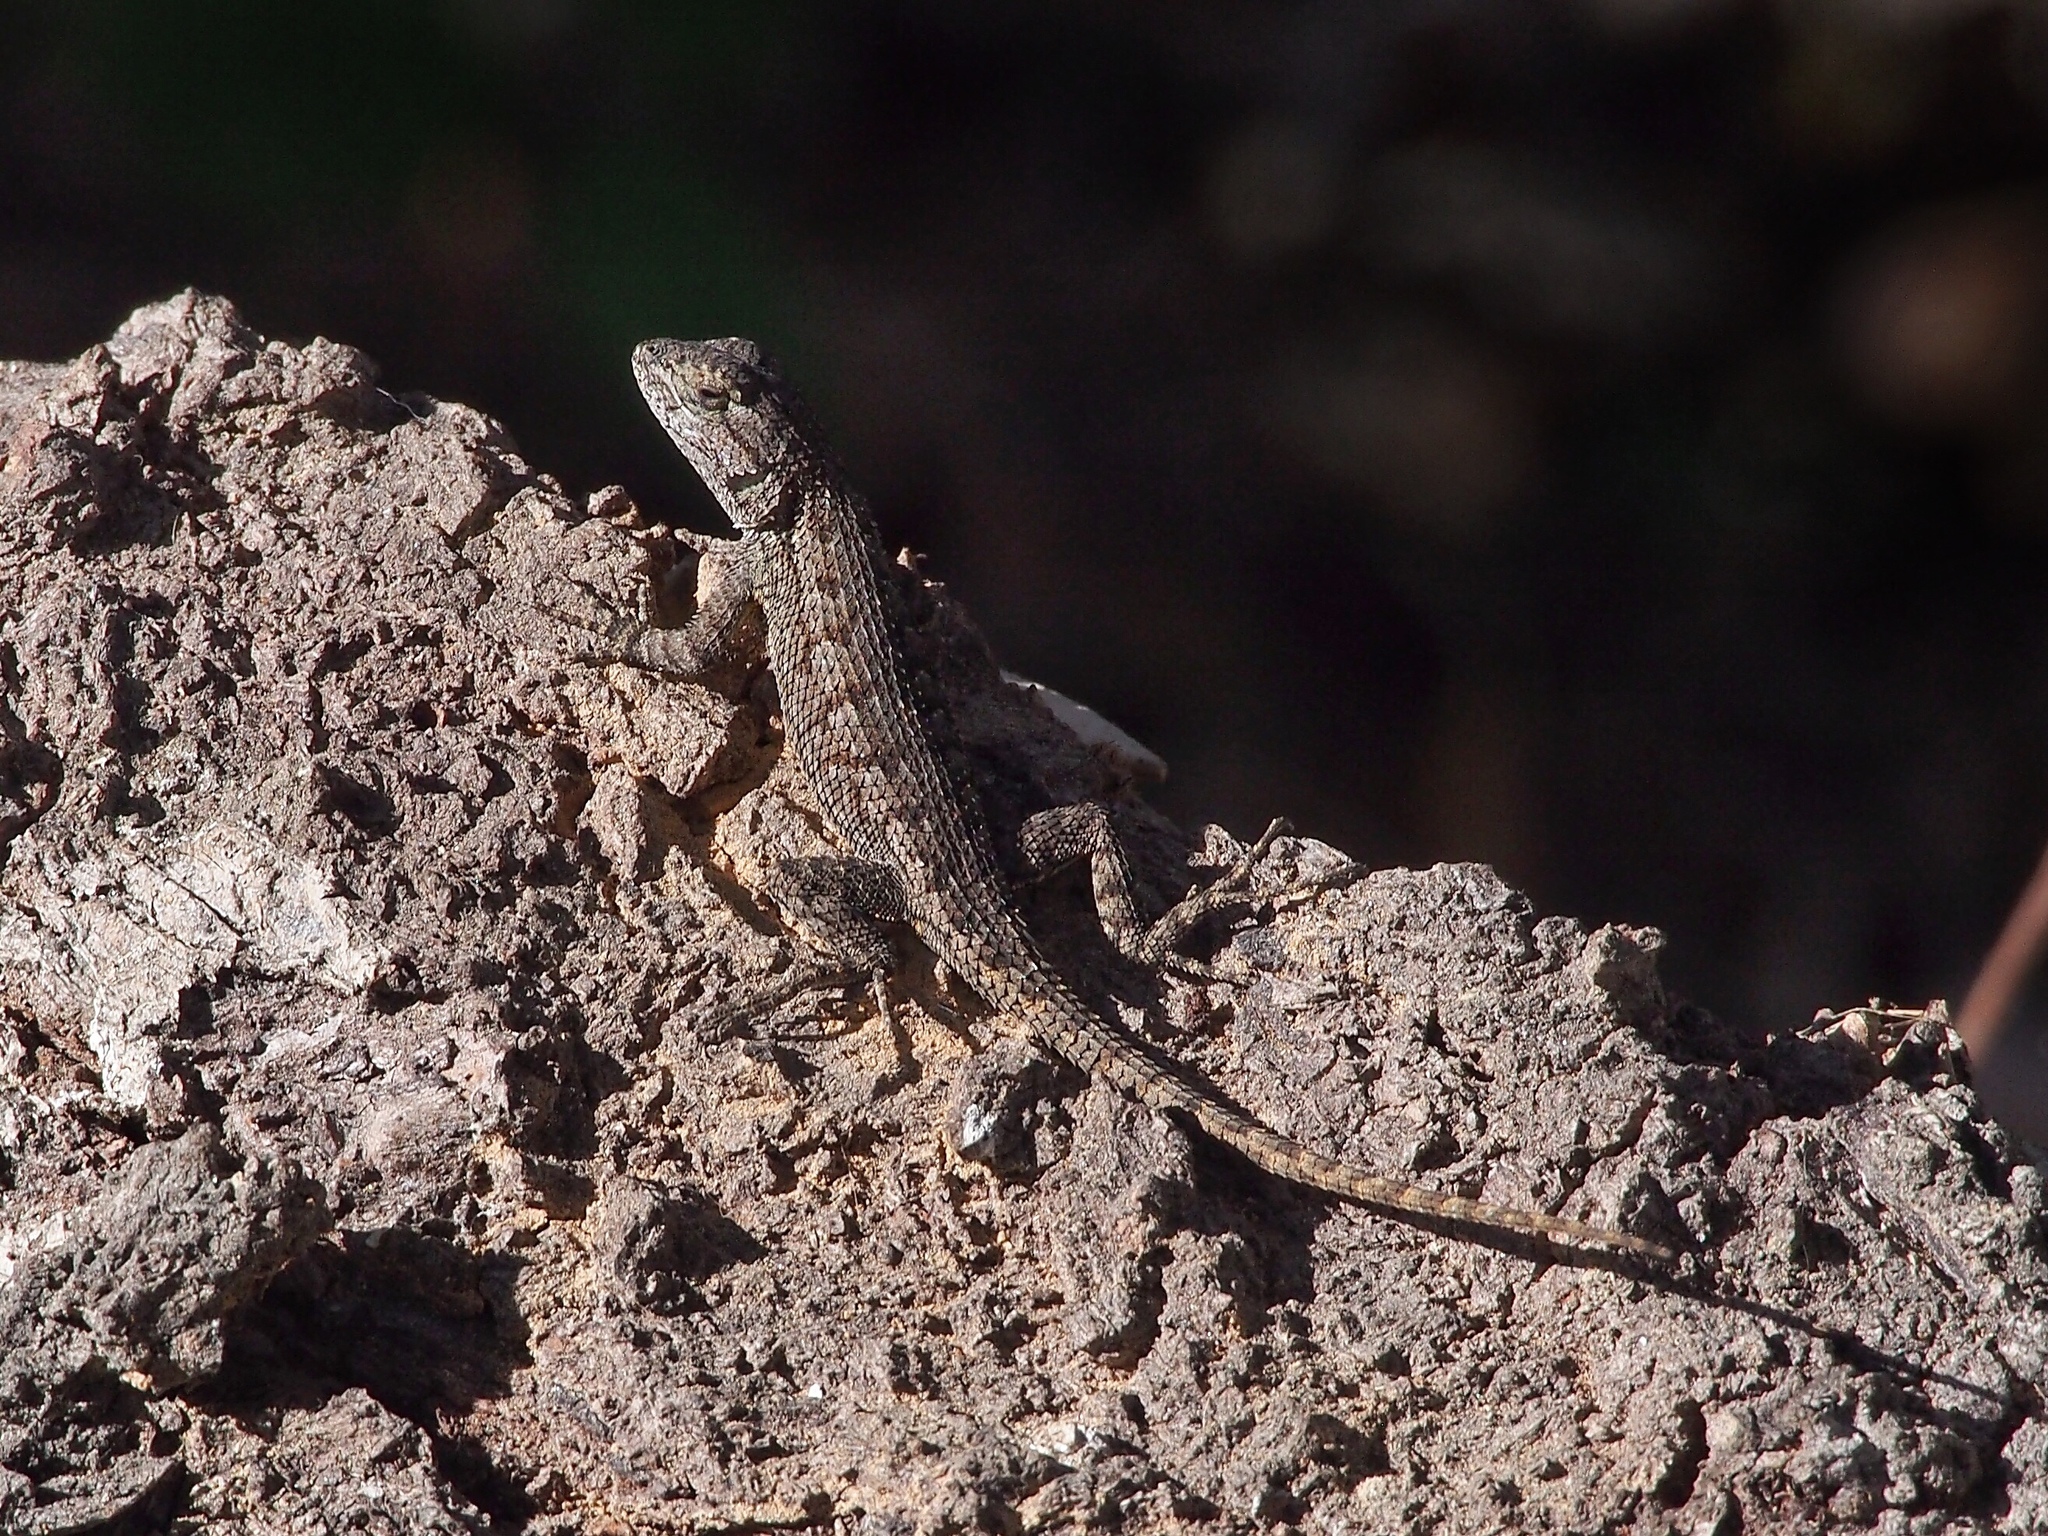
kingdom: Animalia
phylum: Chordata
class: Squamata
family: Phrynosomatidae
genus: Sceloporus
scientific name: Sceloporus occidentalis
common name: Western fence lizard
